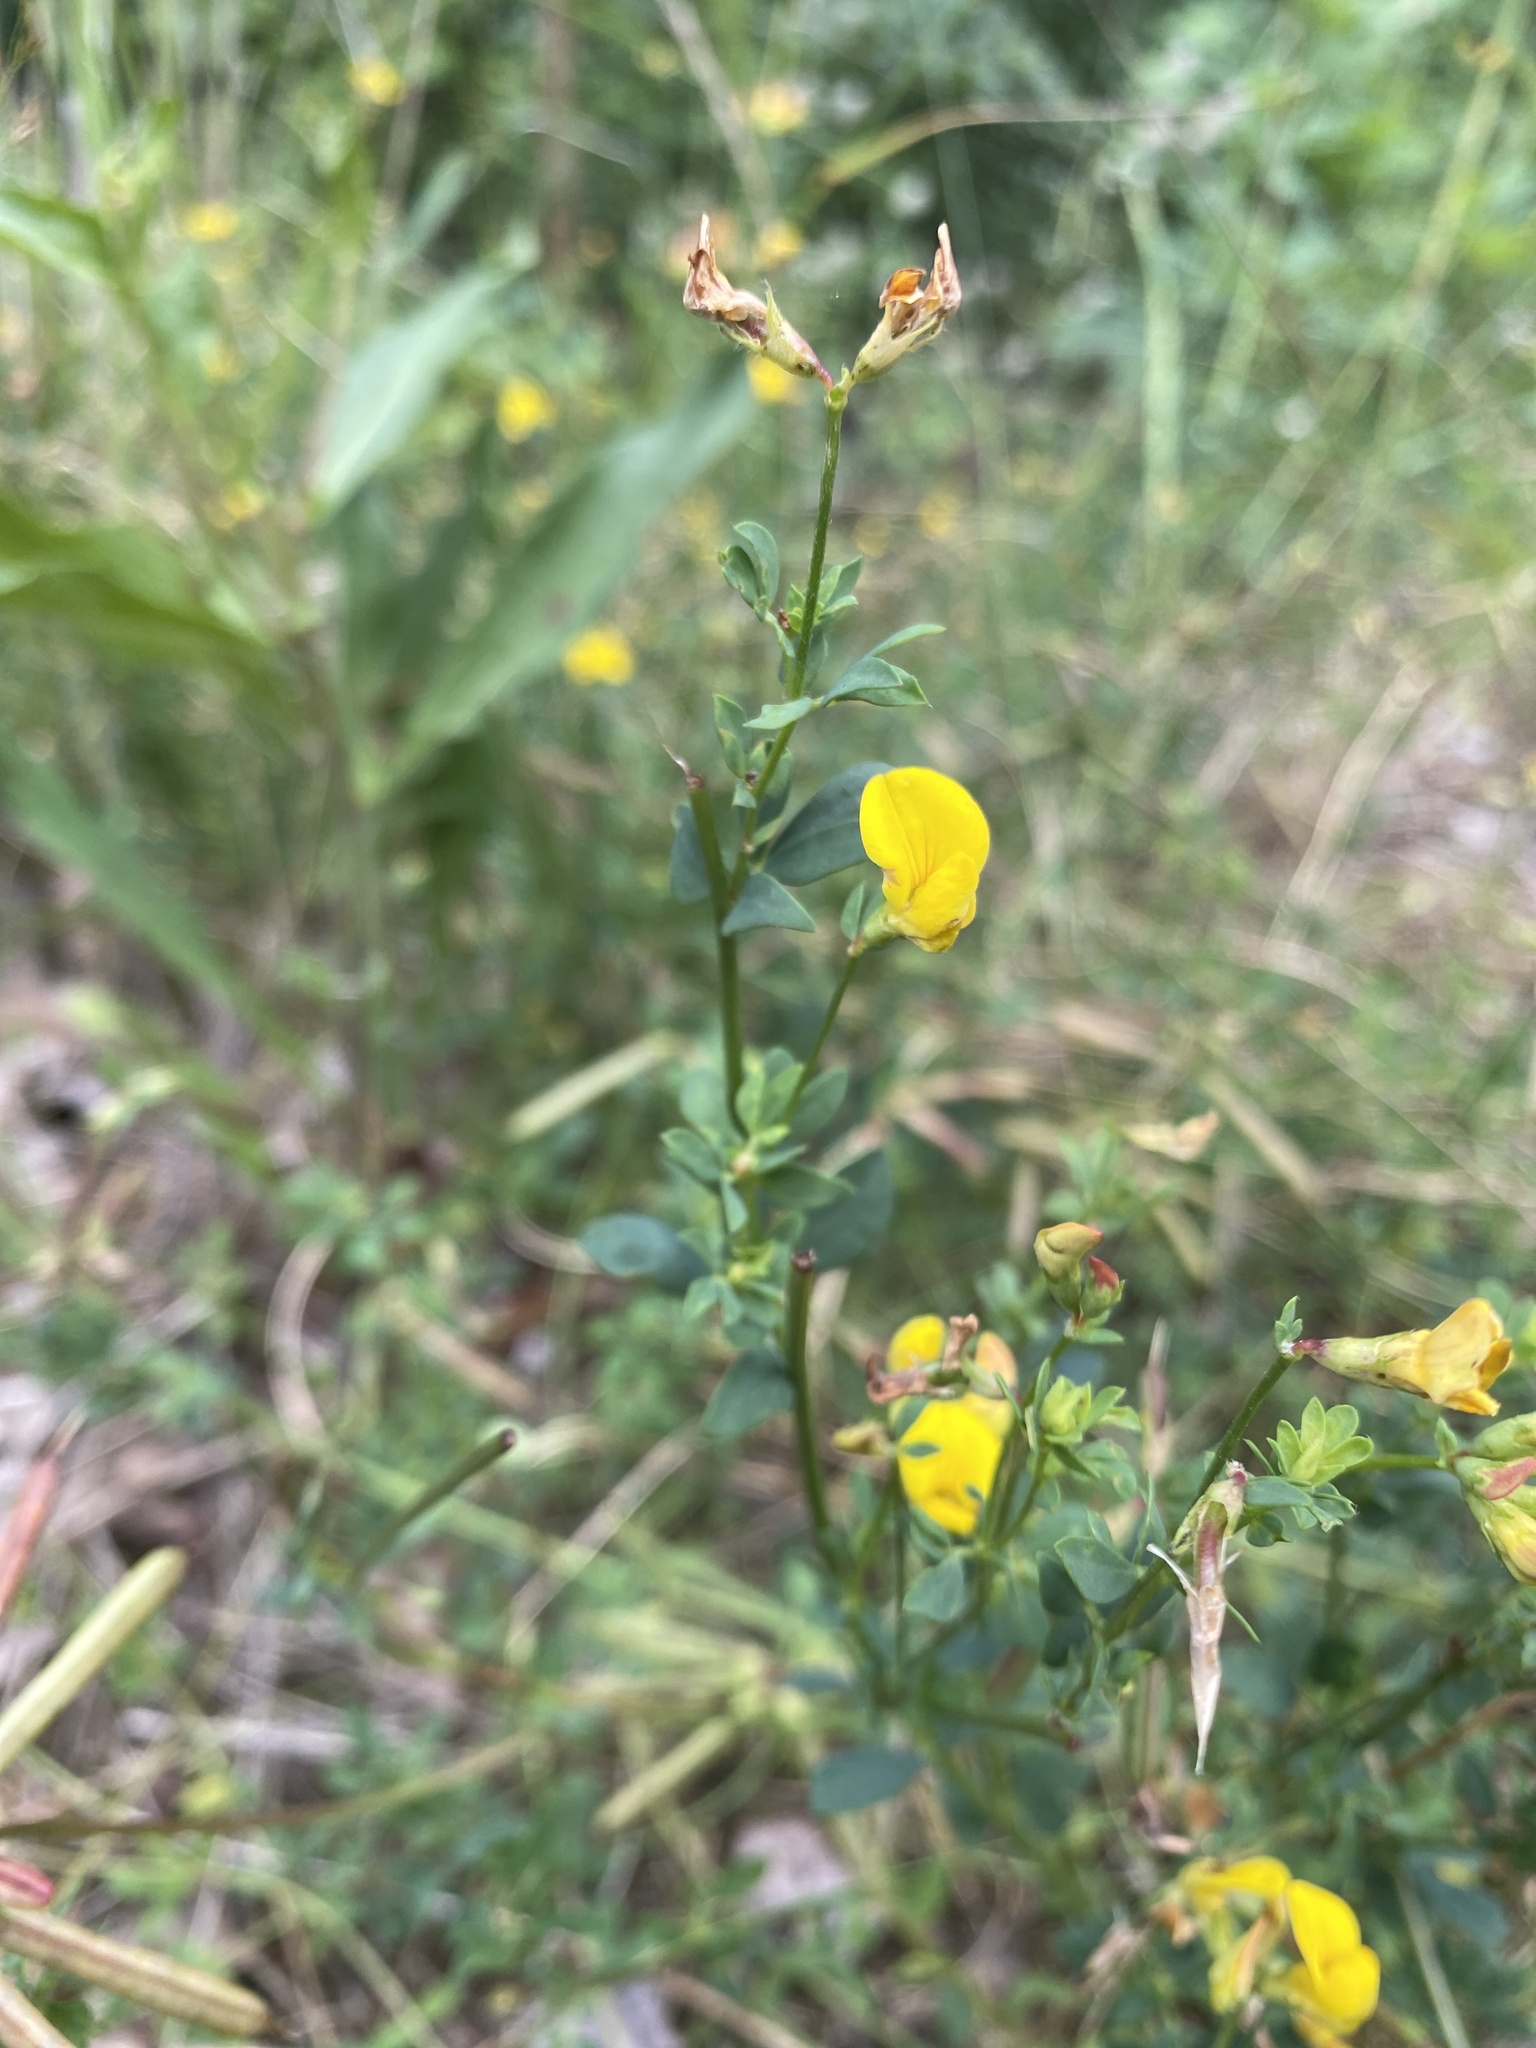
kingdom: Plantae
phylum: Tracheophyta
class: Magnoliopsida
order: Fabales
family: Fabaceae
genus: Lotus
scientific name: Lotus corniculatus
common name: Common bird's-foot-trefoil
